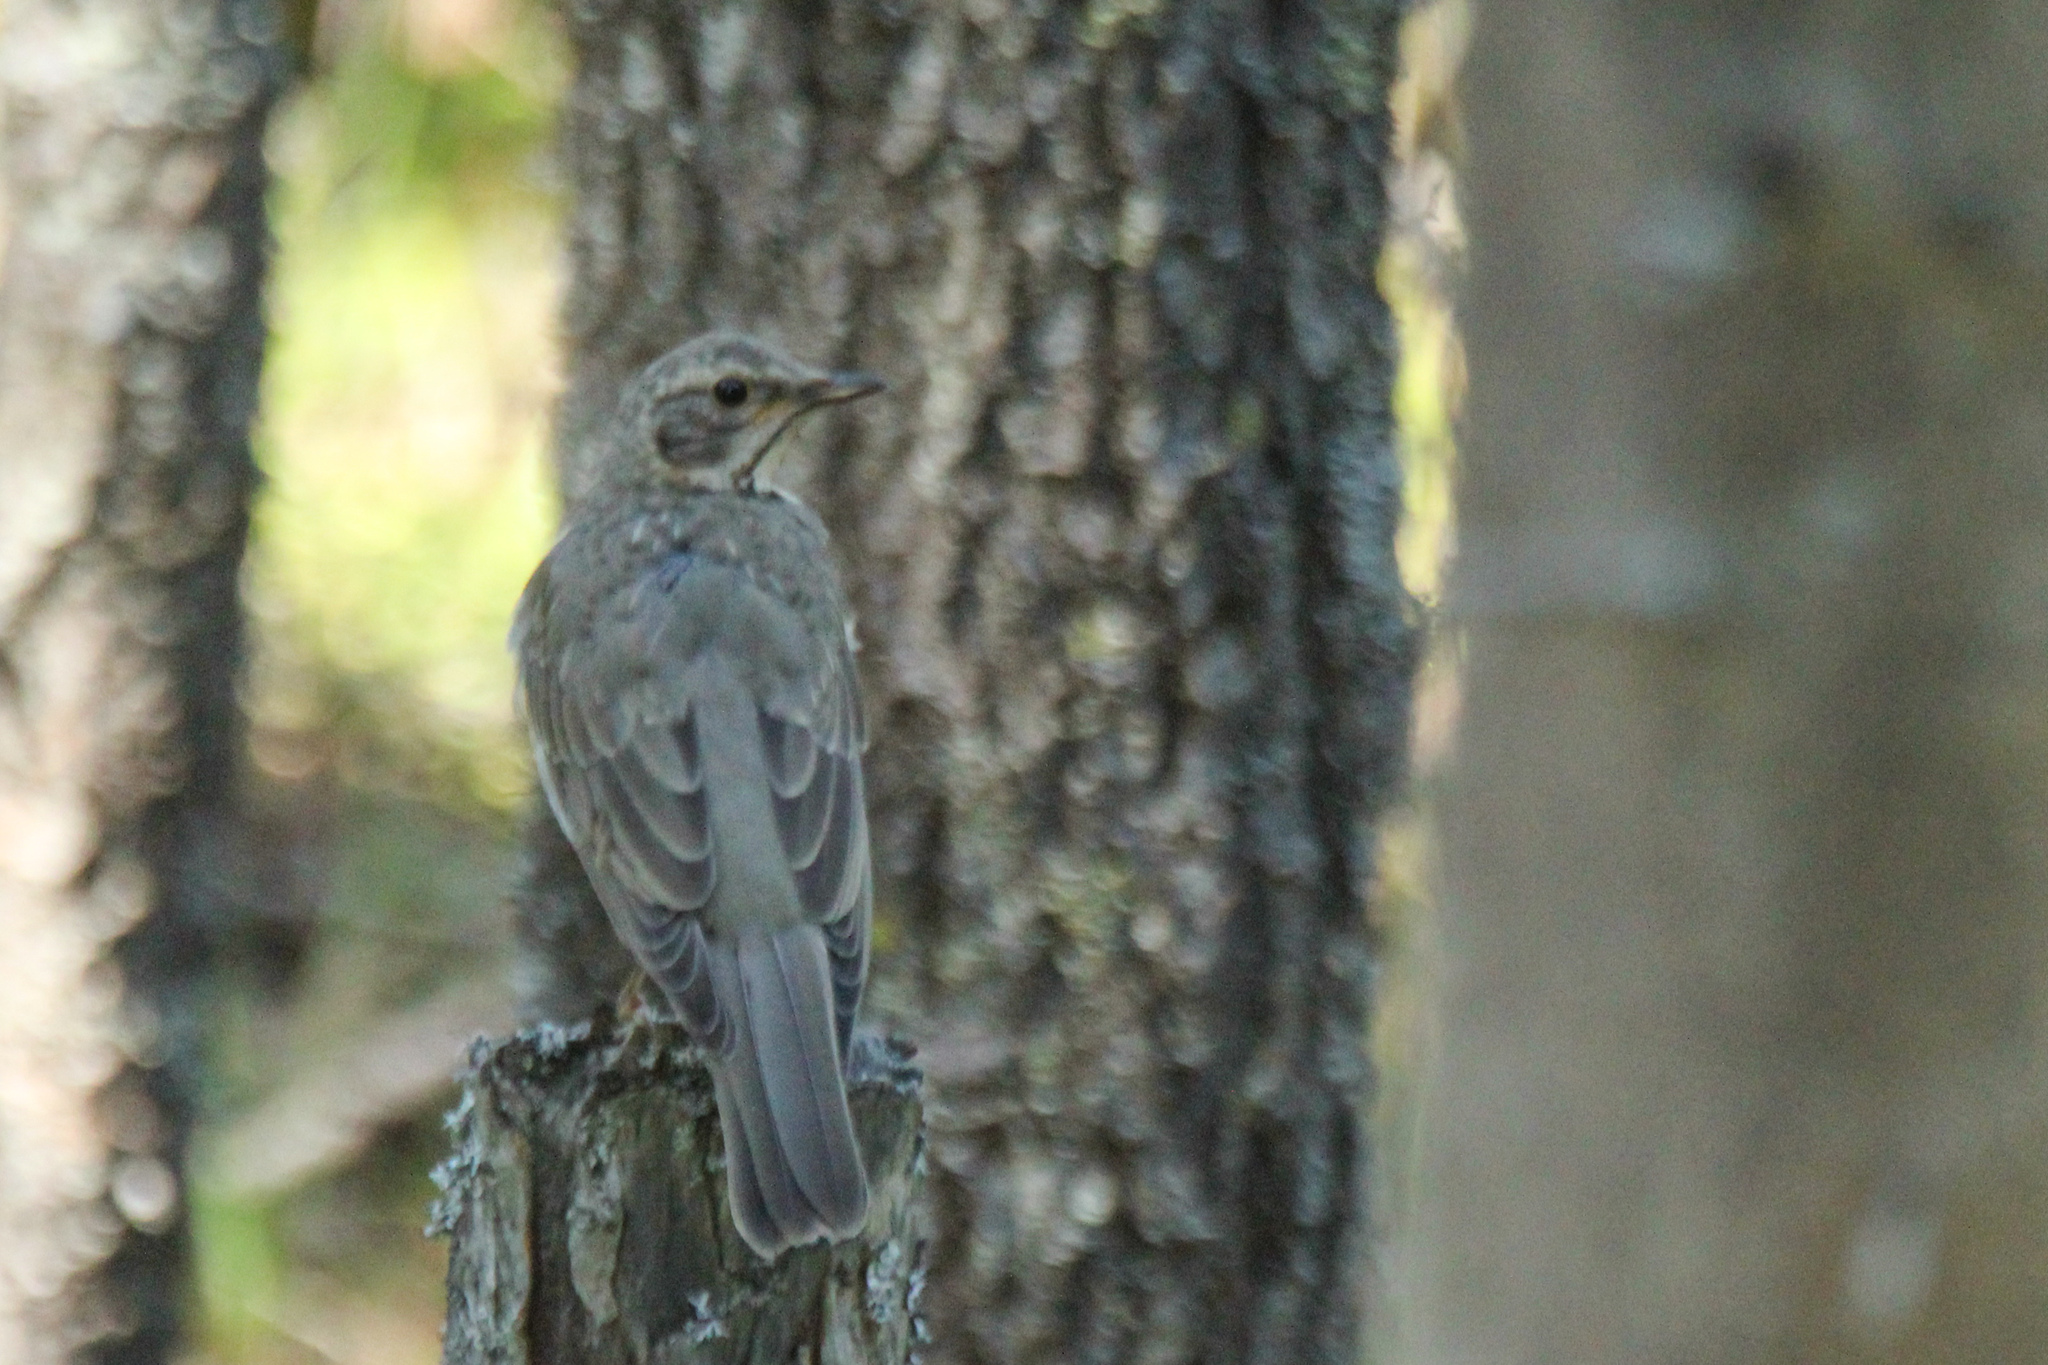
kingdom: Animalia
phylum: Chordata
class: Aves
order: Passeriformes
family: Turdidae
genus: Turdus
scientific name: Turdus atrogularis
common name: Black-throated thrush
